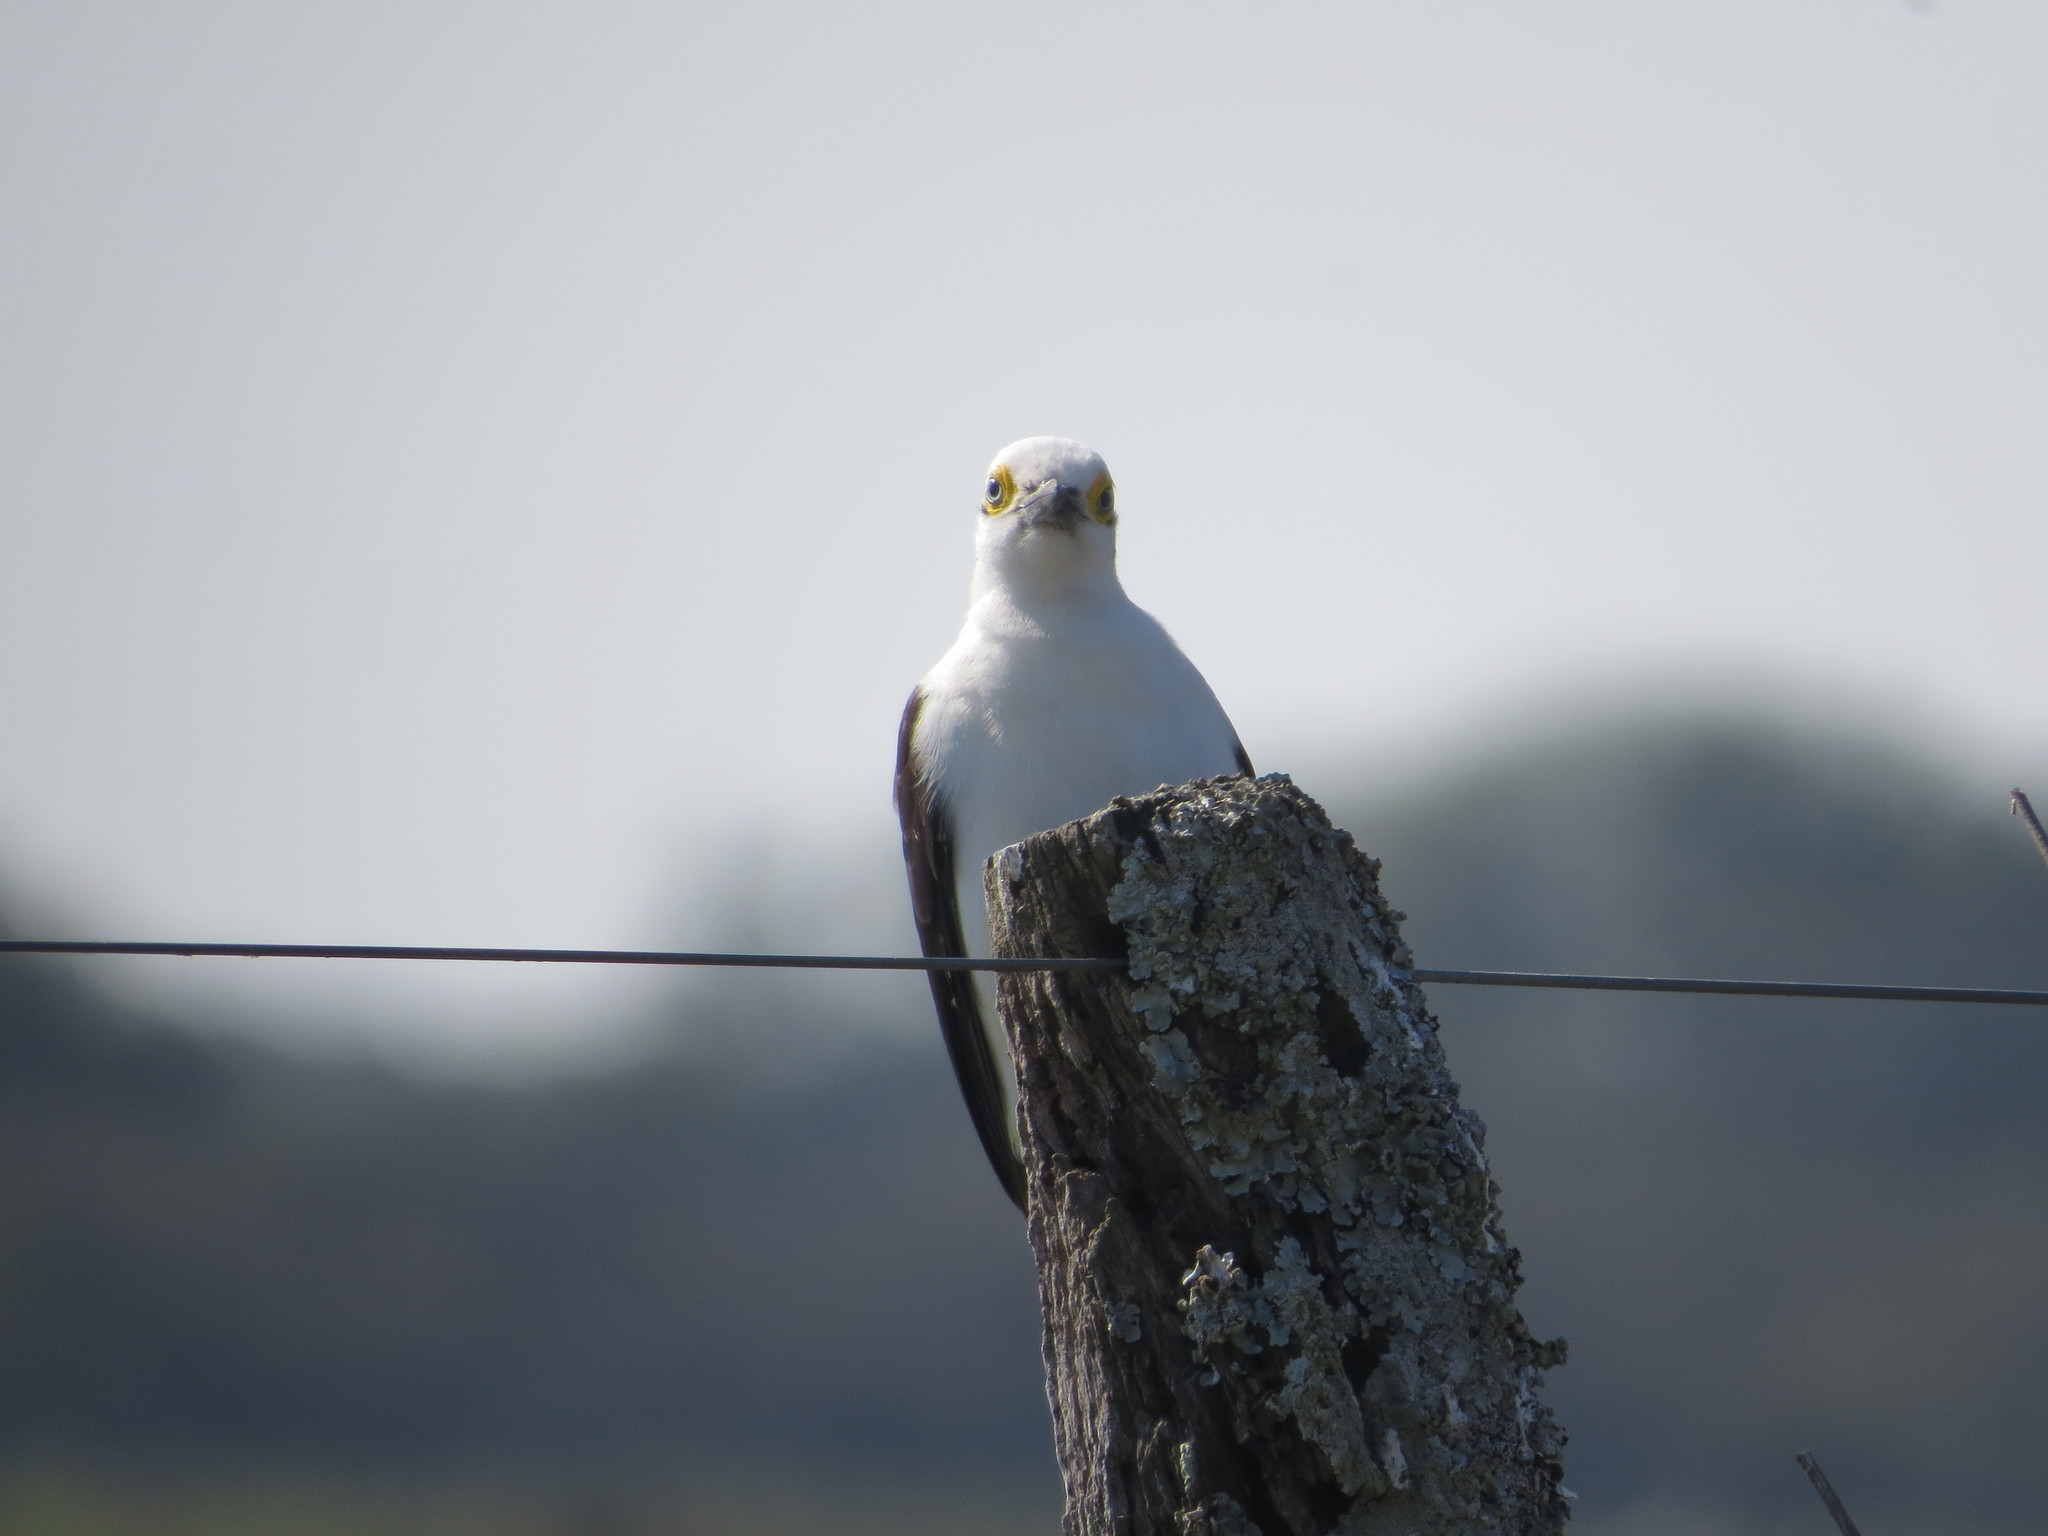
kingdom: Animalia
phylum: Chordata
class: Aves
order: Piciformes
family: Picidae
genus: Melanerpes
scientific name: Melanerpes candidus
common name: White woodpecker
